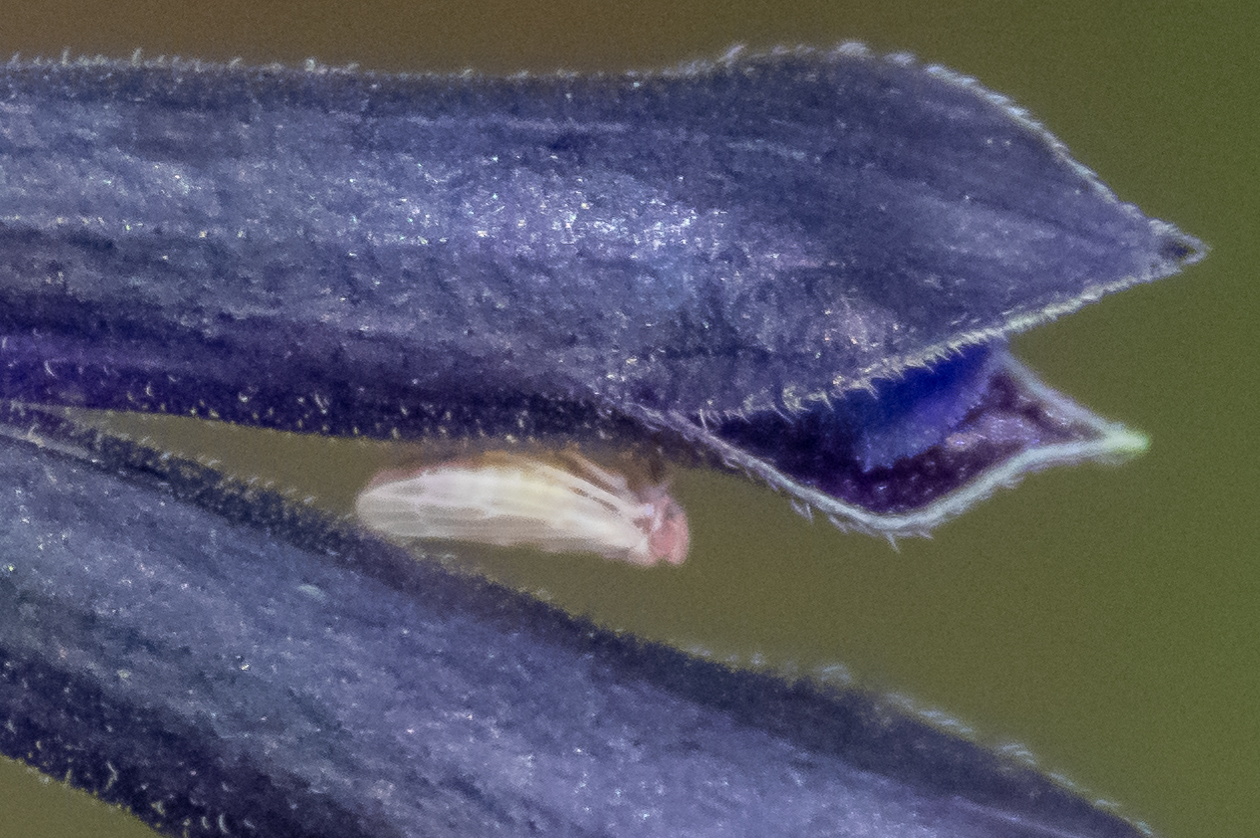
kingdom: Animalia
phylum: Arthropoda
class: Insecta
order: Hemiptera
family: Cicadellidae
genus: Agalliopsis
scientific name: Agalliopsis ancistra
